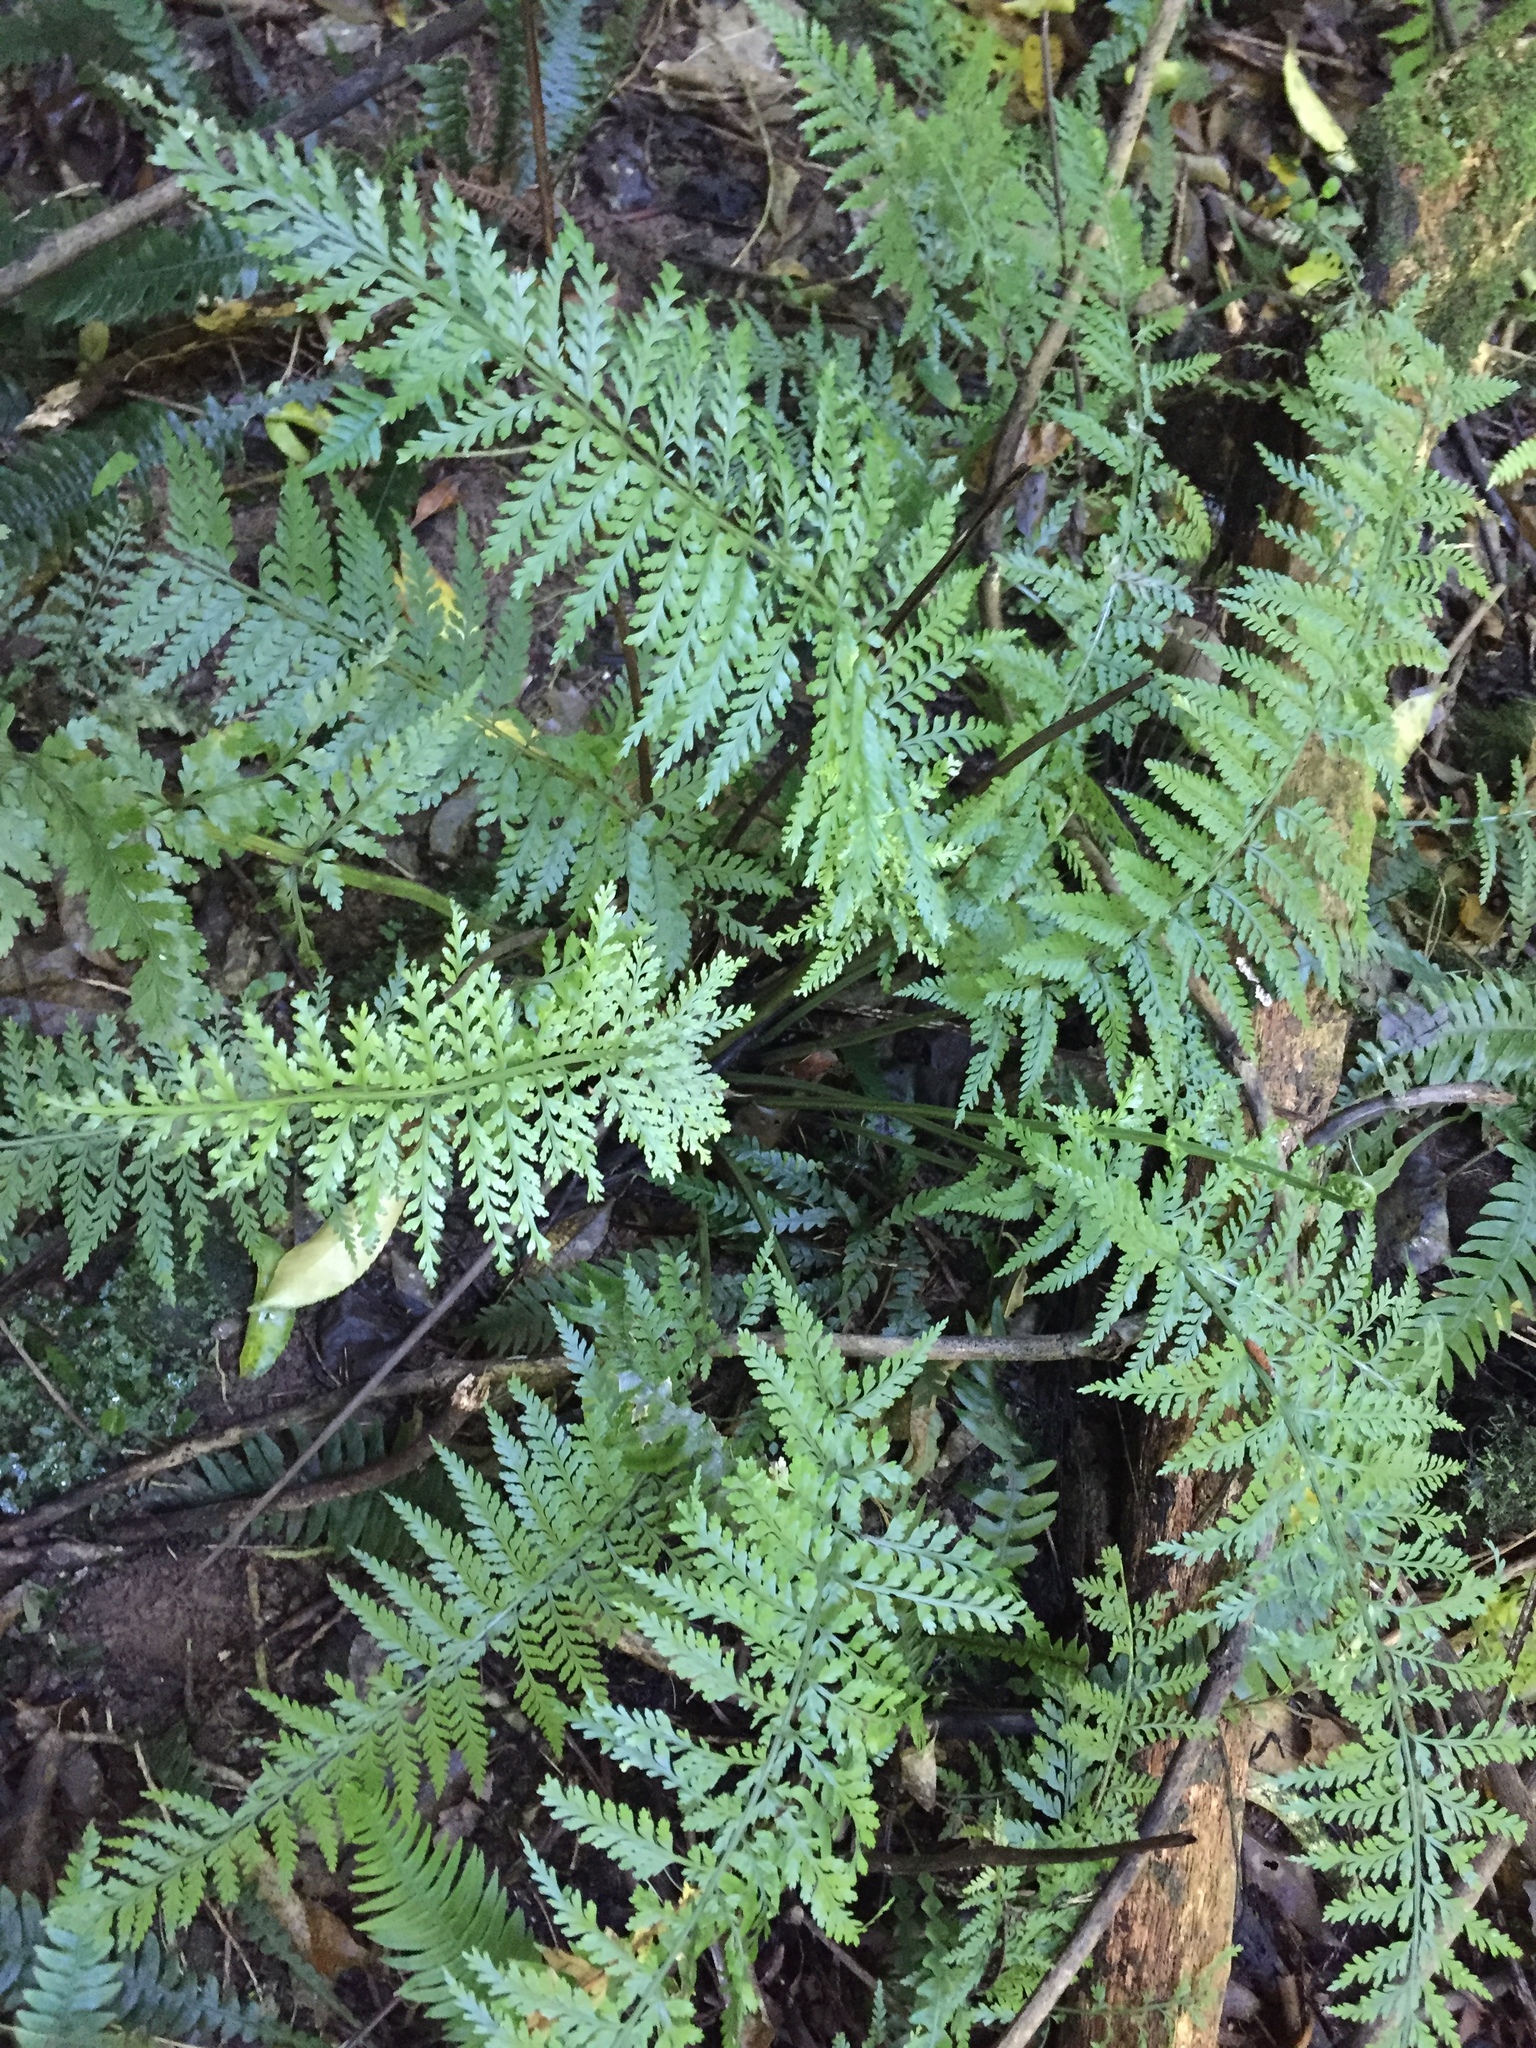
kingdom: Plantae
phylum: Tracheophyta
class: Polypodiopsida
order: Polypodiales
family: Aspleniaceae
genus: Asplenium
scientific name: Asplenium bulbiferum
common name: Mother fern
